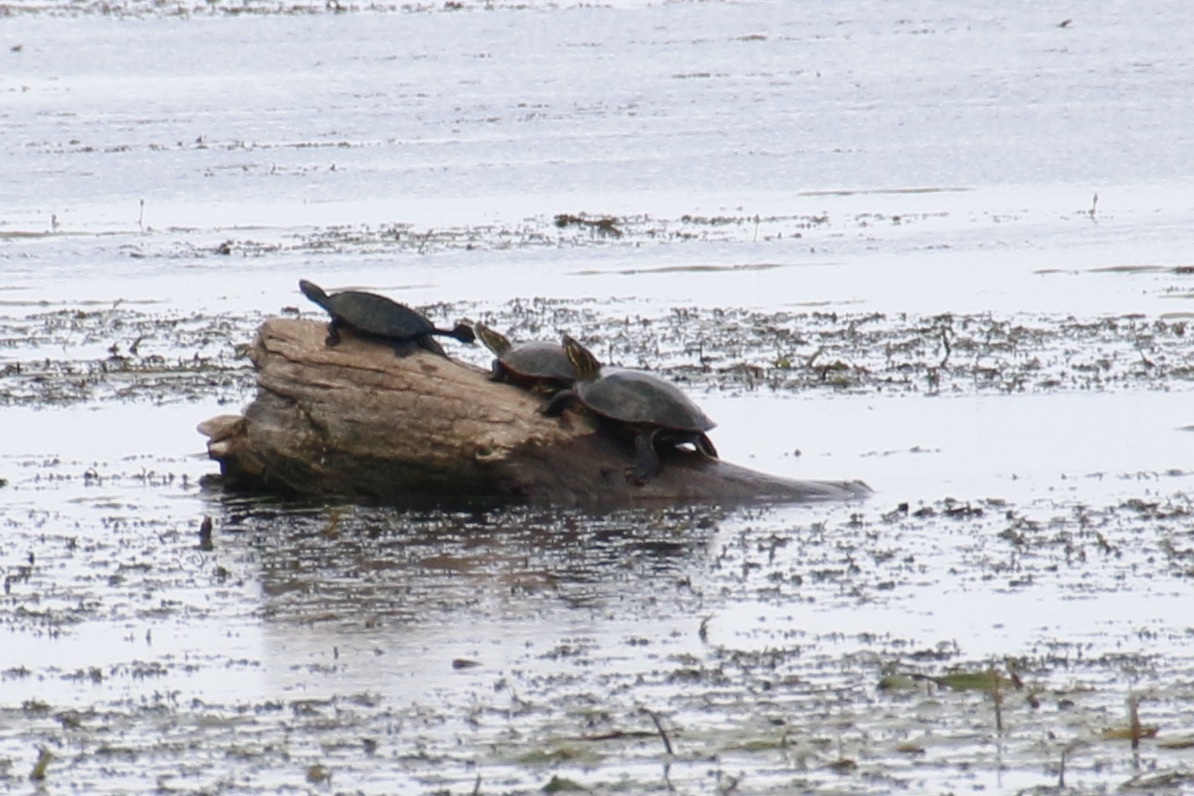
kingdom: Animalia
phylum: Chordata
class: Testudines
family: Emydidae
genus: Chrysemys
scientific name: Chrysemys picta
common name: Painted turtle
